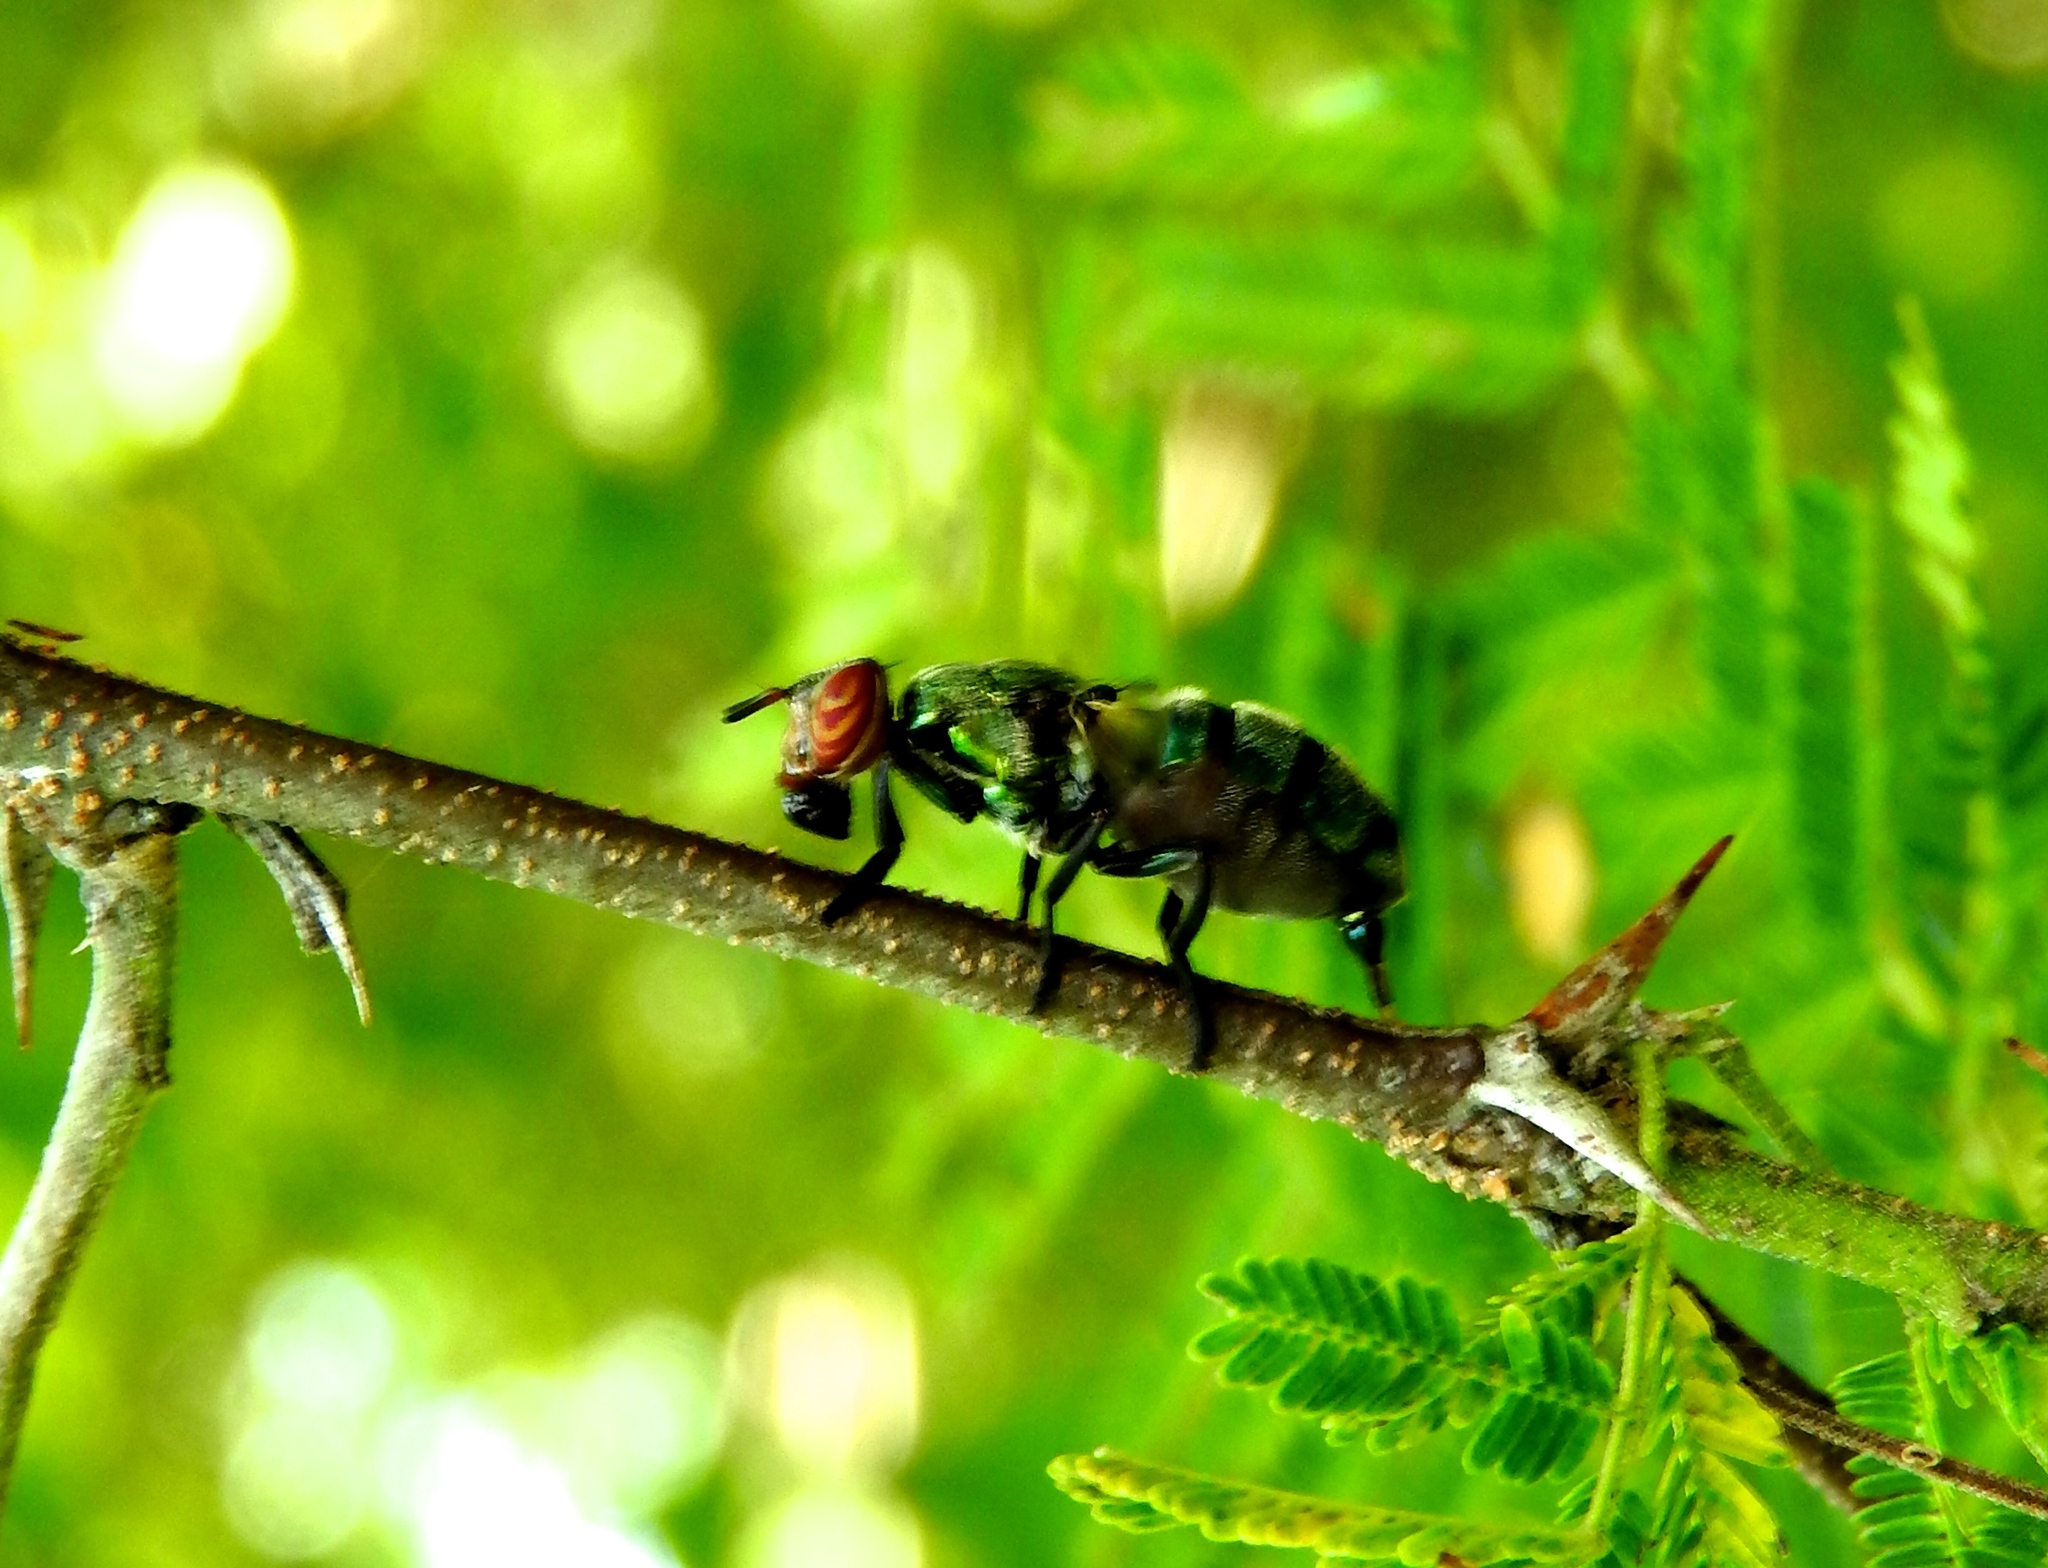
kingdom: Animalia
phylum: Arthropoda
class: Insecta
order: Diptera
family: Platystomatidae
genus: Senopterina
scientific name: Senopterina
